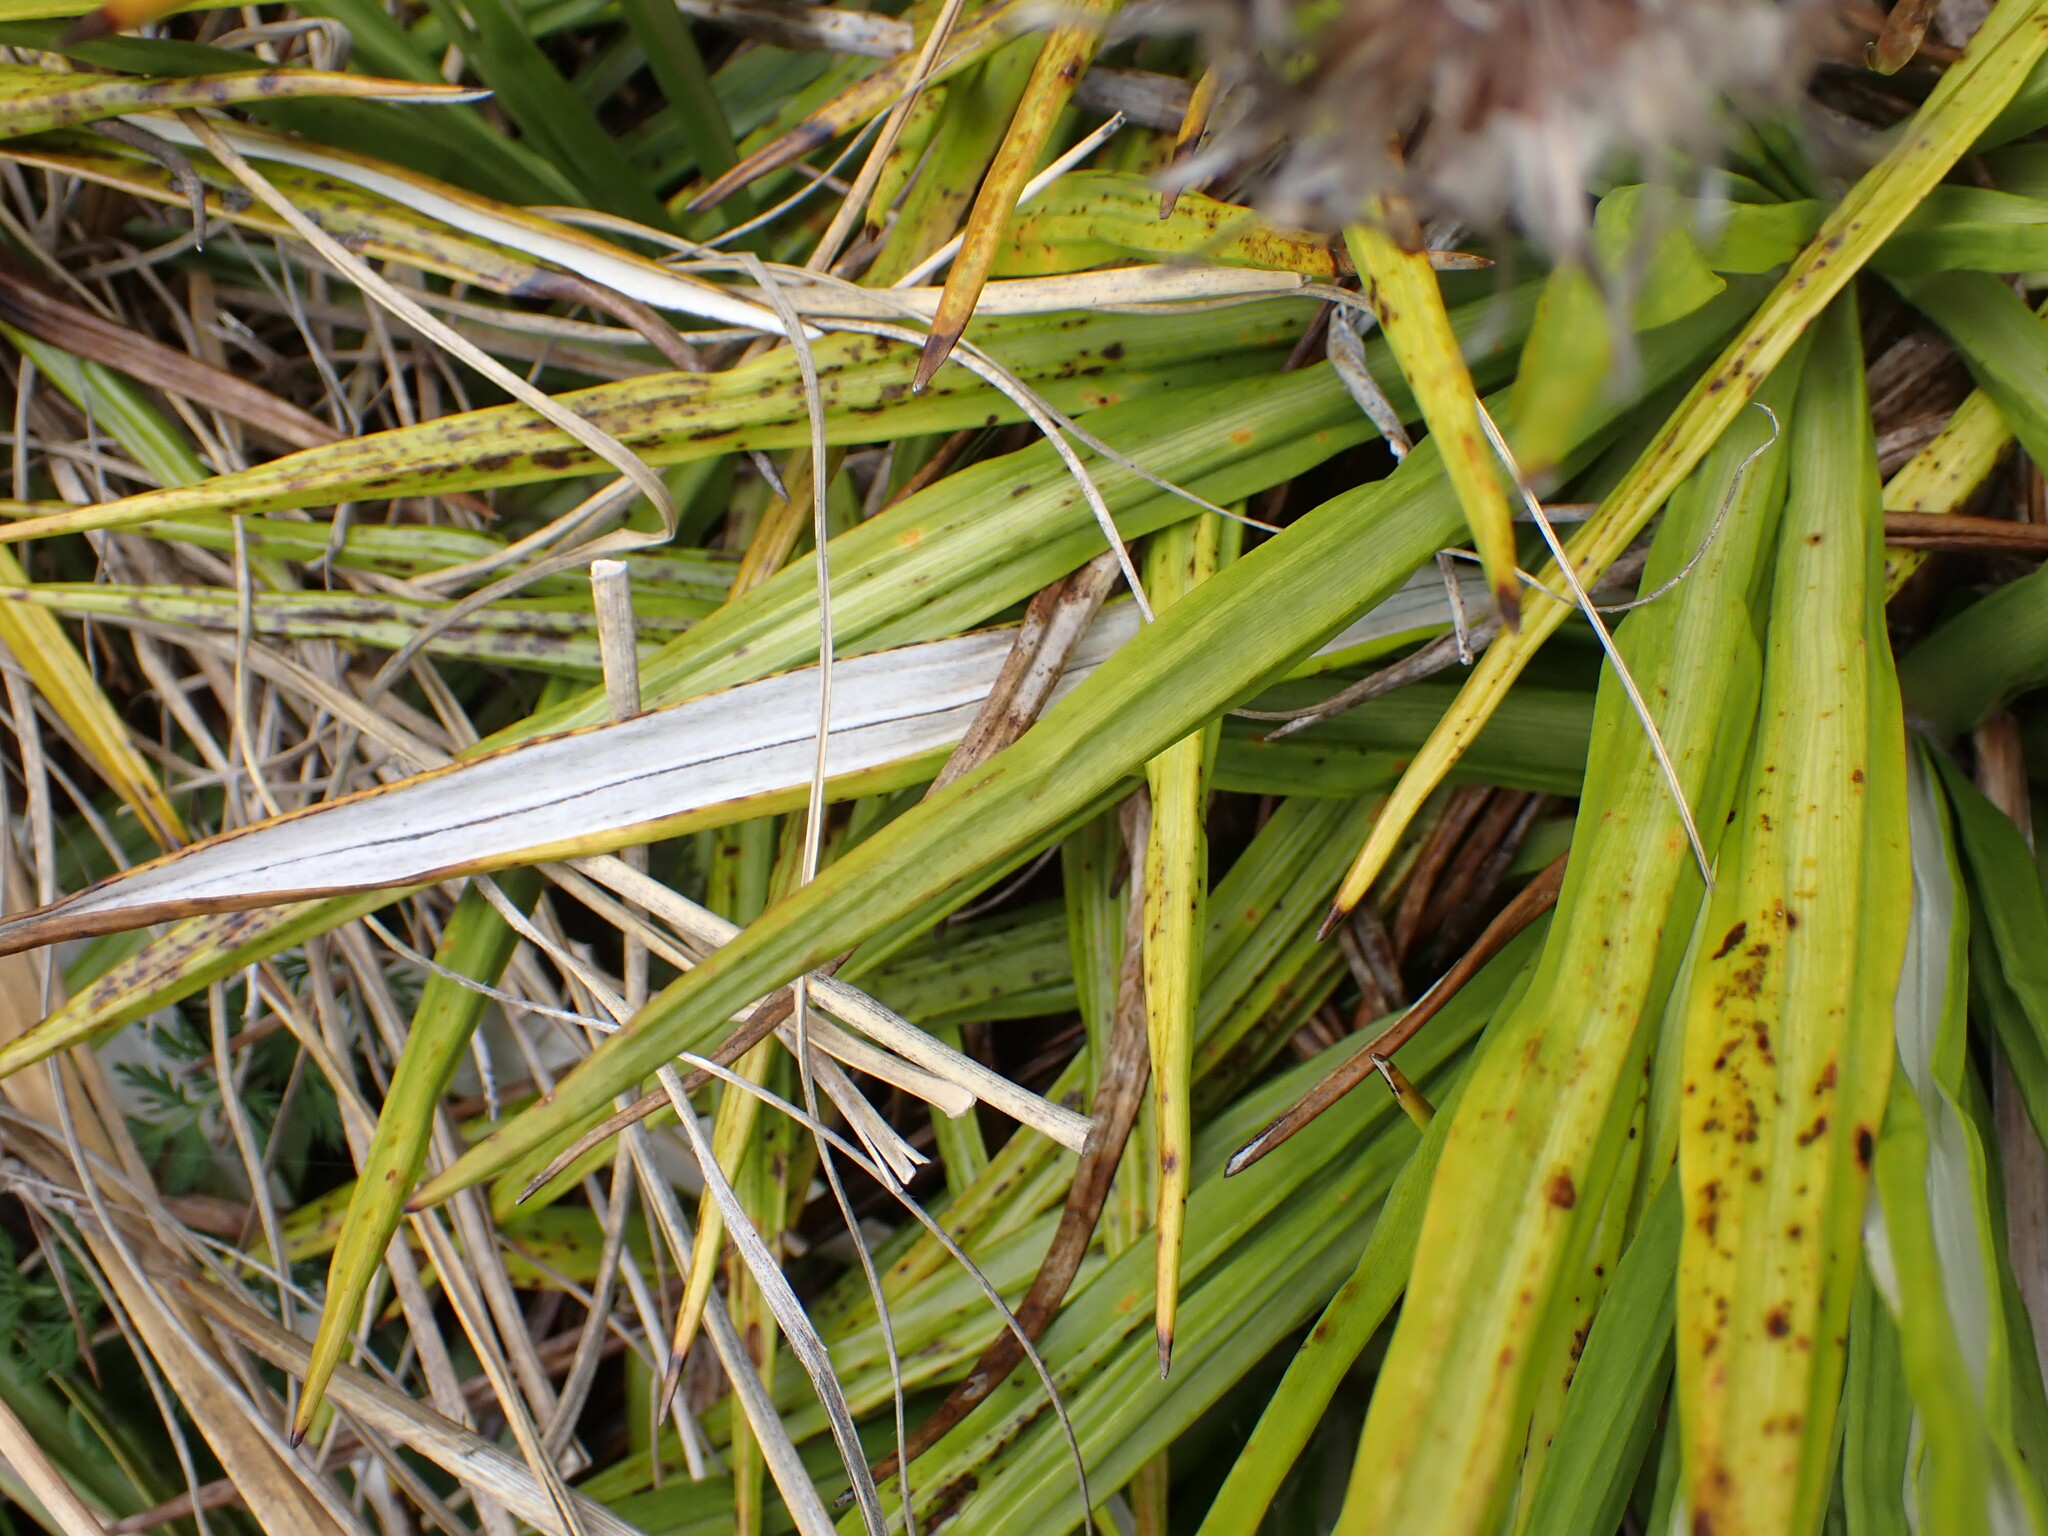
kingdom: Plantae
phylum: Tracheophyta
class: Magnoliopsida
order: Asterales
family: Asteraceae
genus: Celmisia
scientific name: Celmisia petriei
